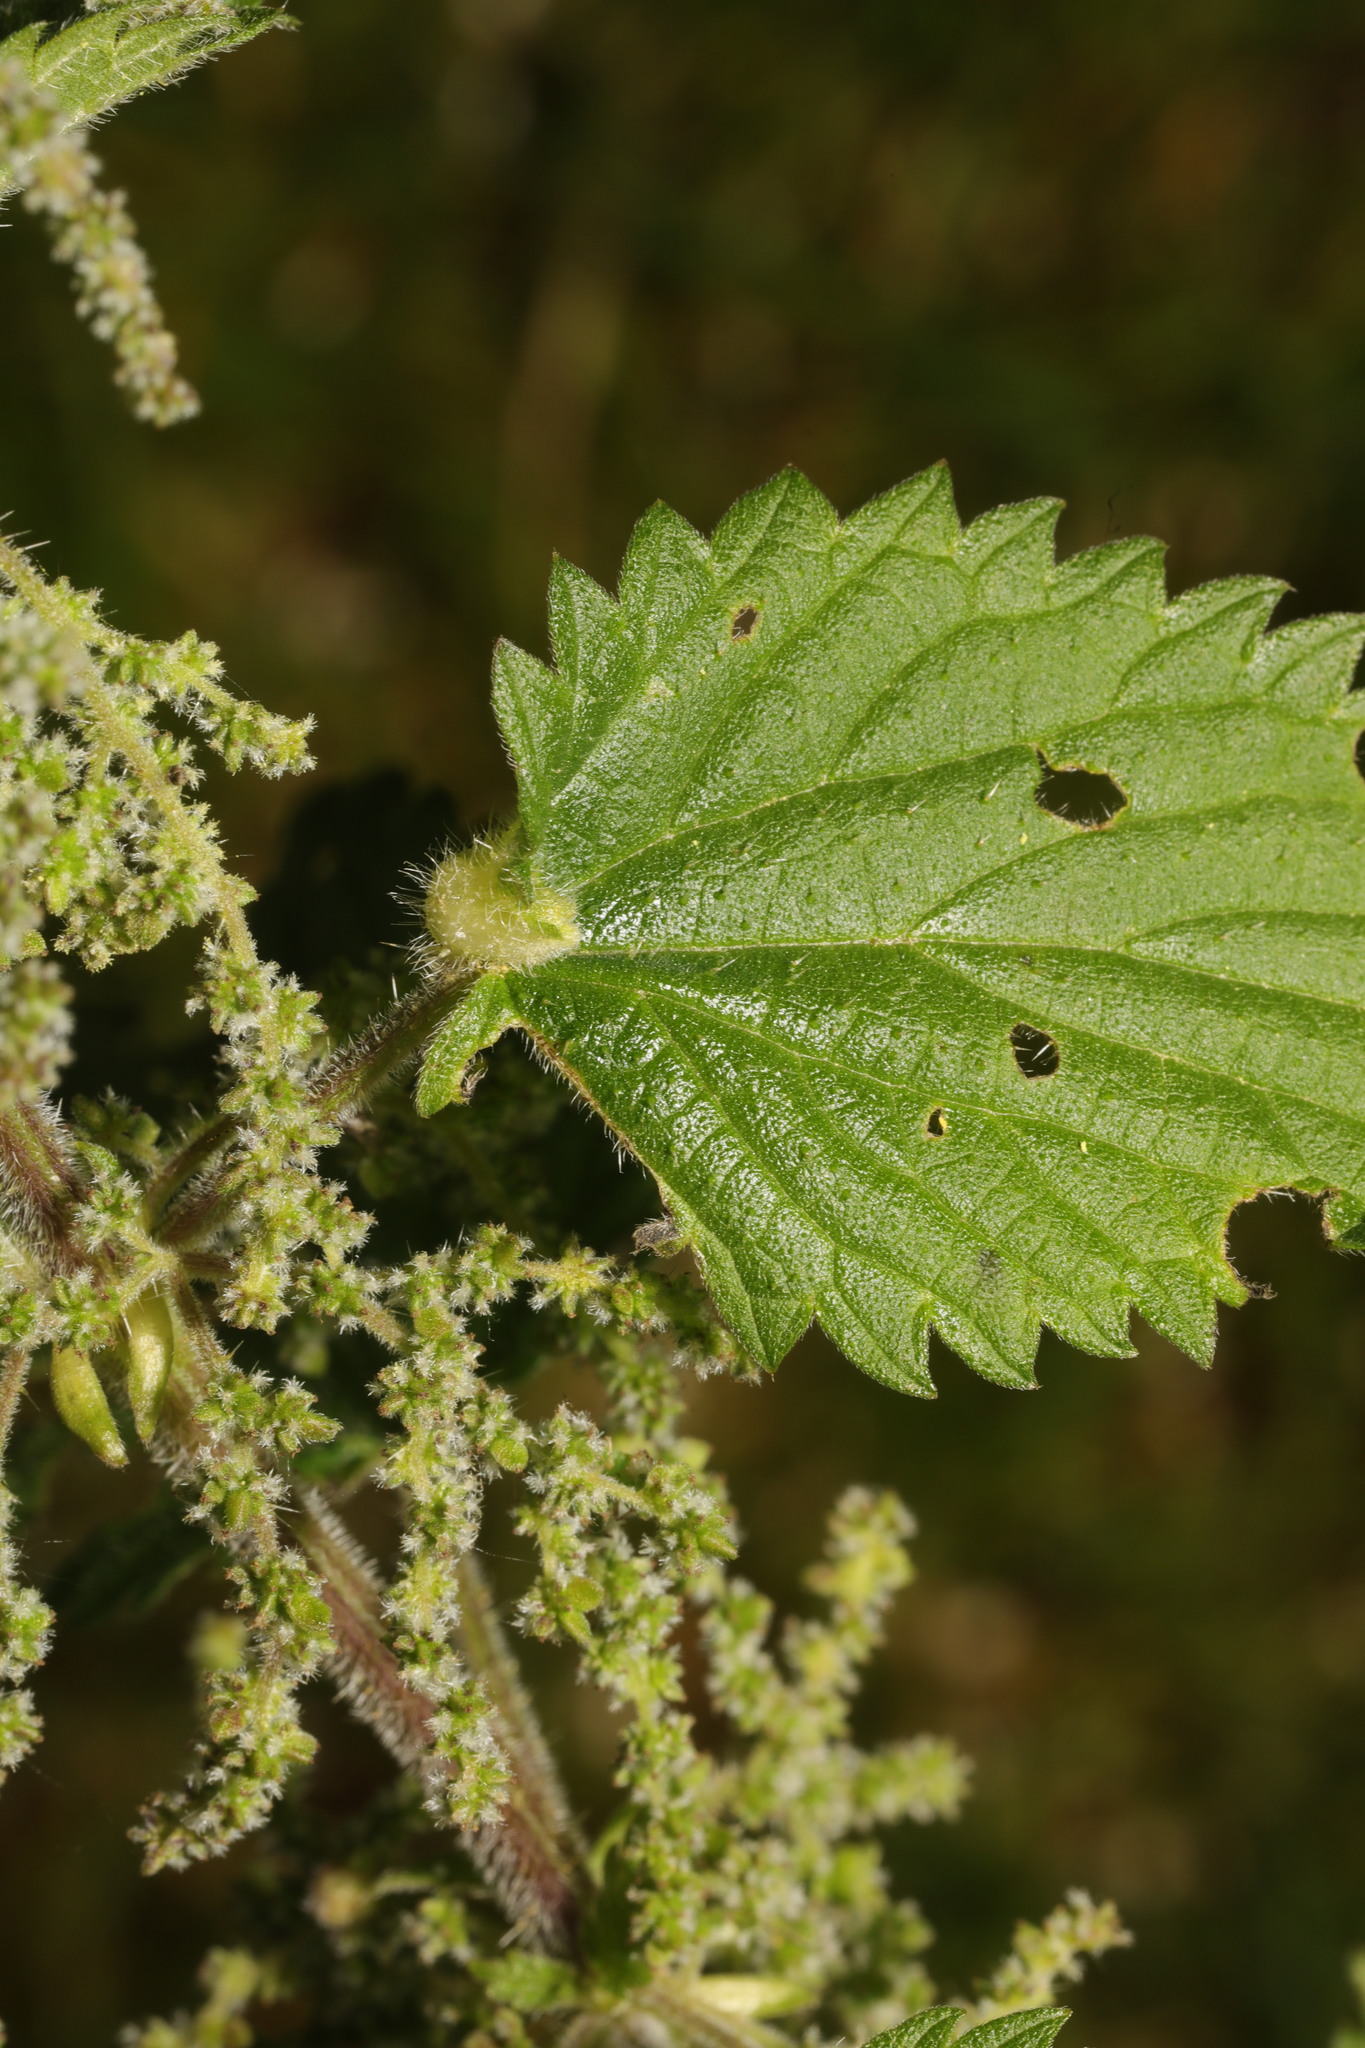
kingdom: Animalia
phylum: Arthropoda
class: Insecta
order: Diptera
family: Cecidomyiidae
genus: Dasineura
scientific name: Dasineura urticae
